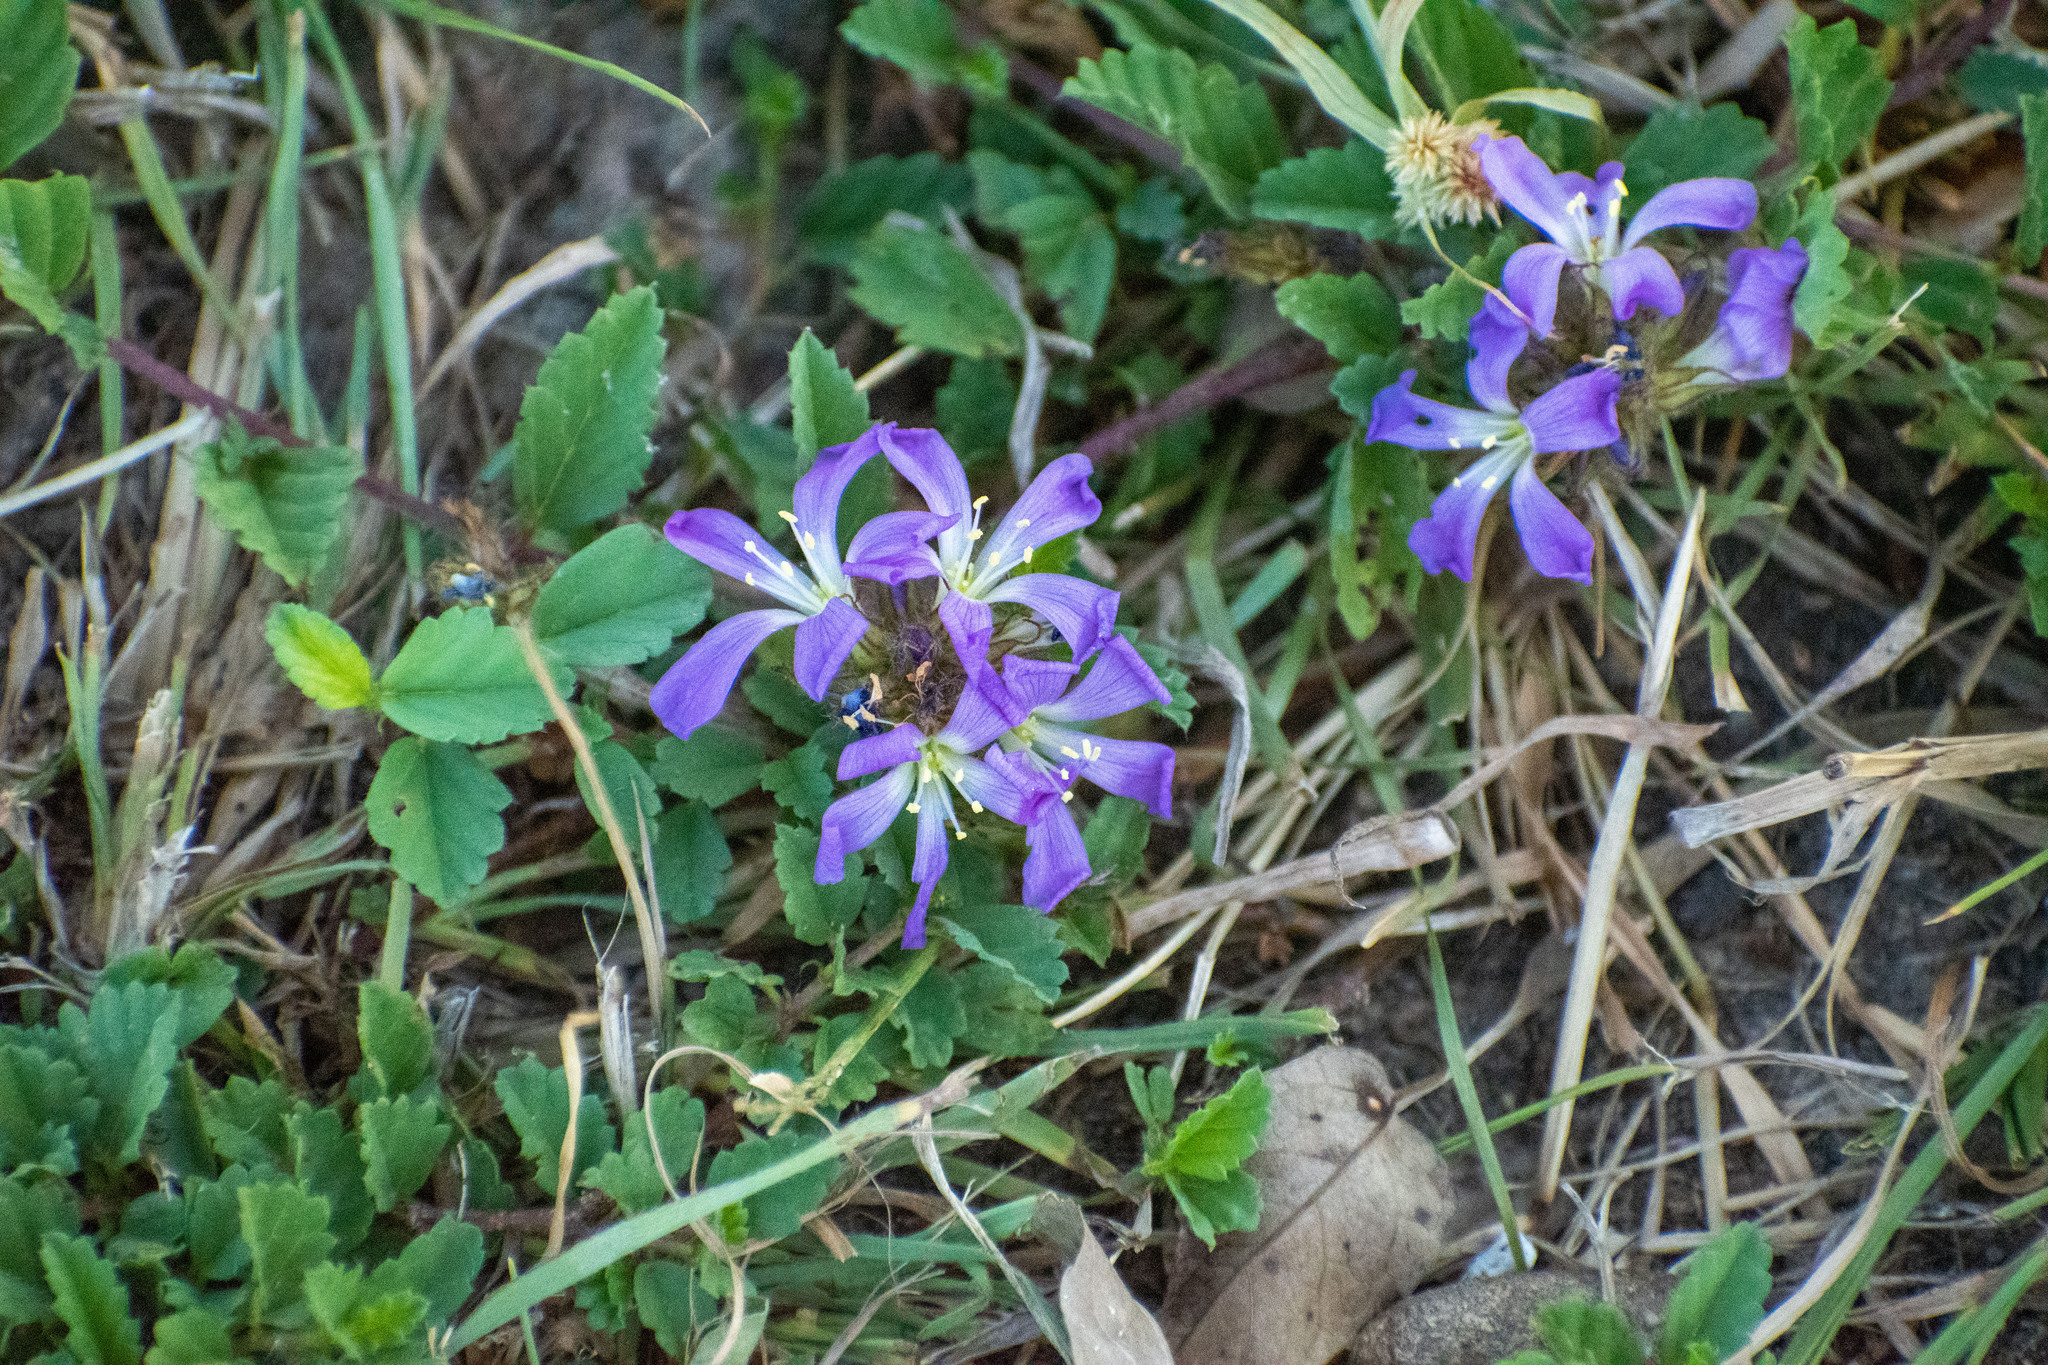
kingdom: Plantae
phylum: Tracheophyta
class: Magnoliopsida
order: Malvales
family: Malvaceae
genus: Melochia
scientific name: Melochia hermannioides
